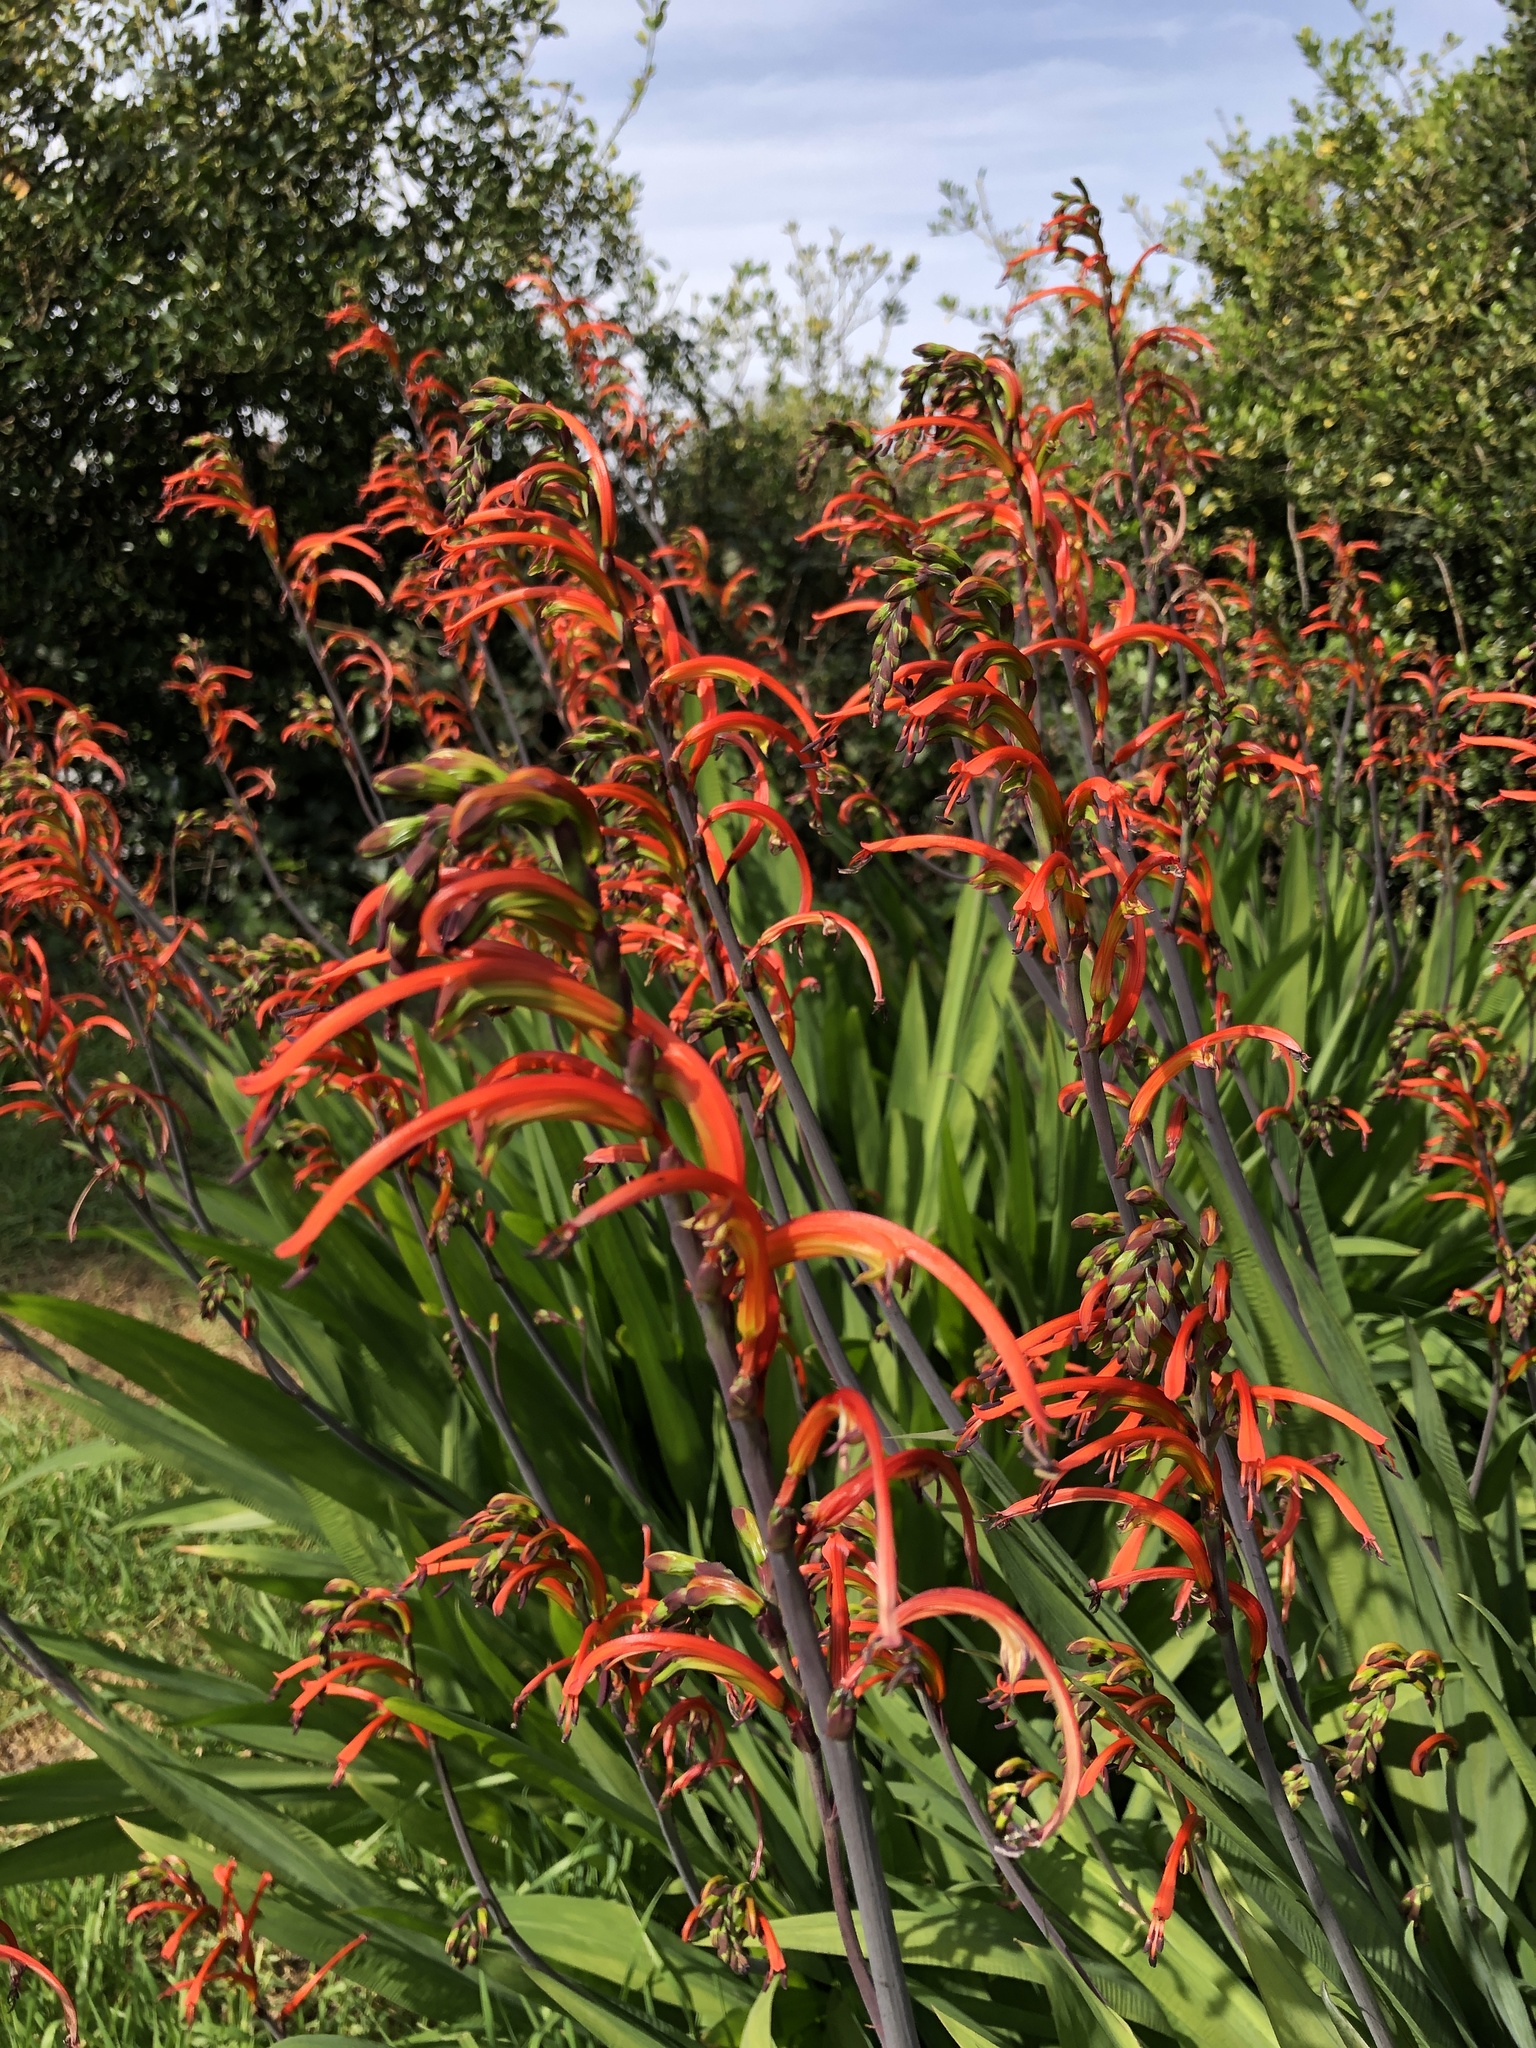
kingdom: Plantae
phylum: Tracheophyta
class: Liliopsida
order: Asparagales
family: Iridaceae
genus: Chasmanthe
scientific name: Chasmanthe bicolor
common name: Bicolor cobra lily
